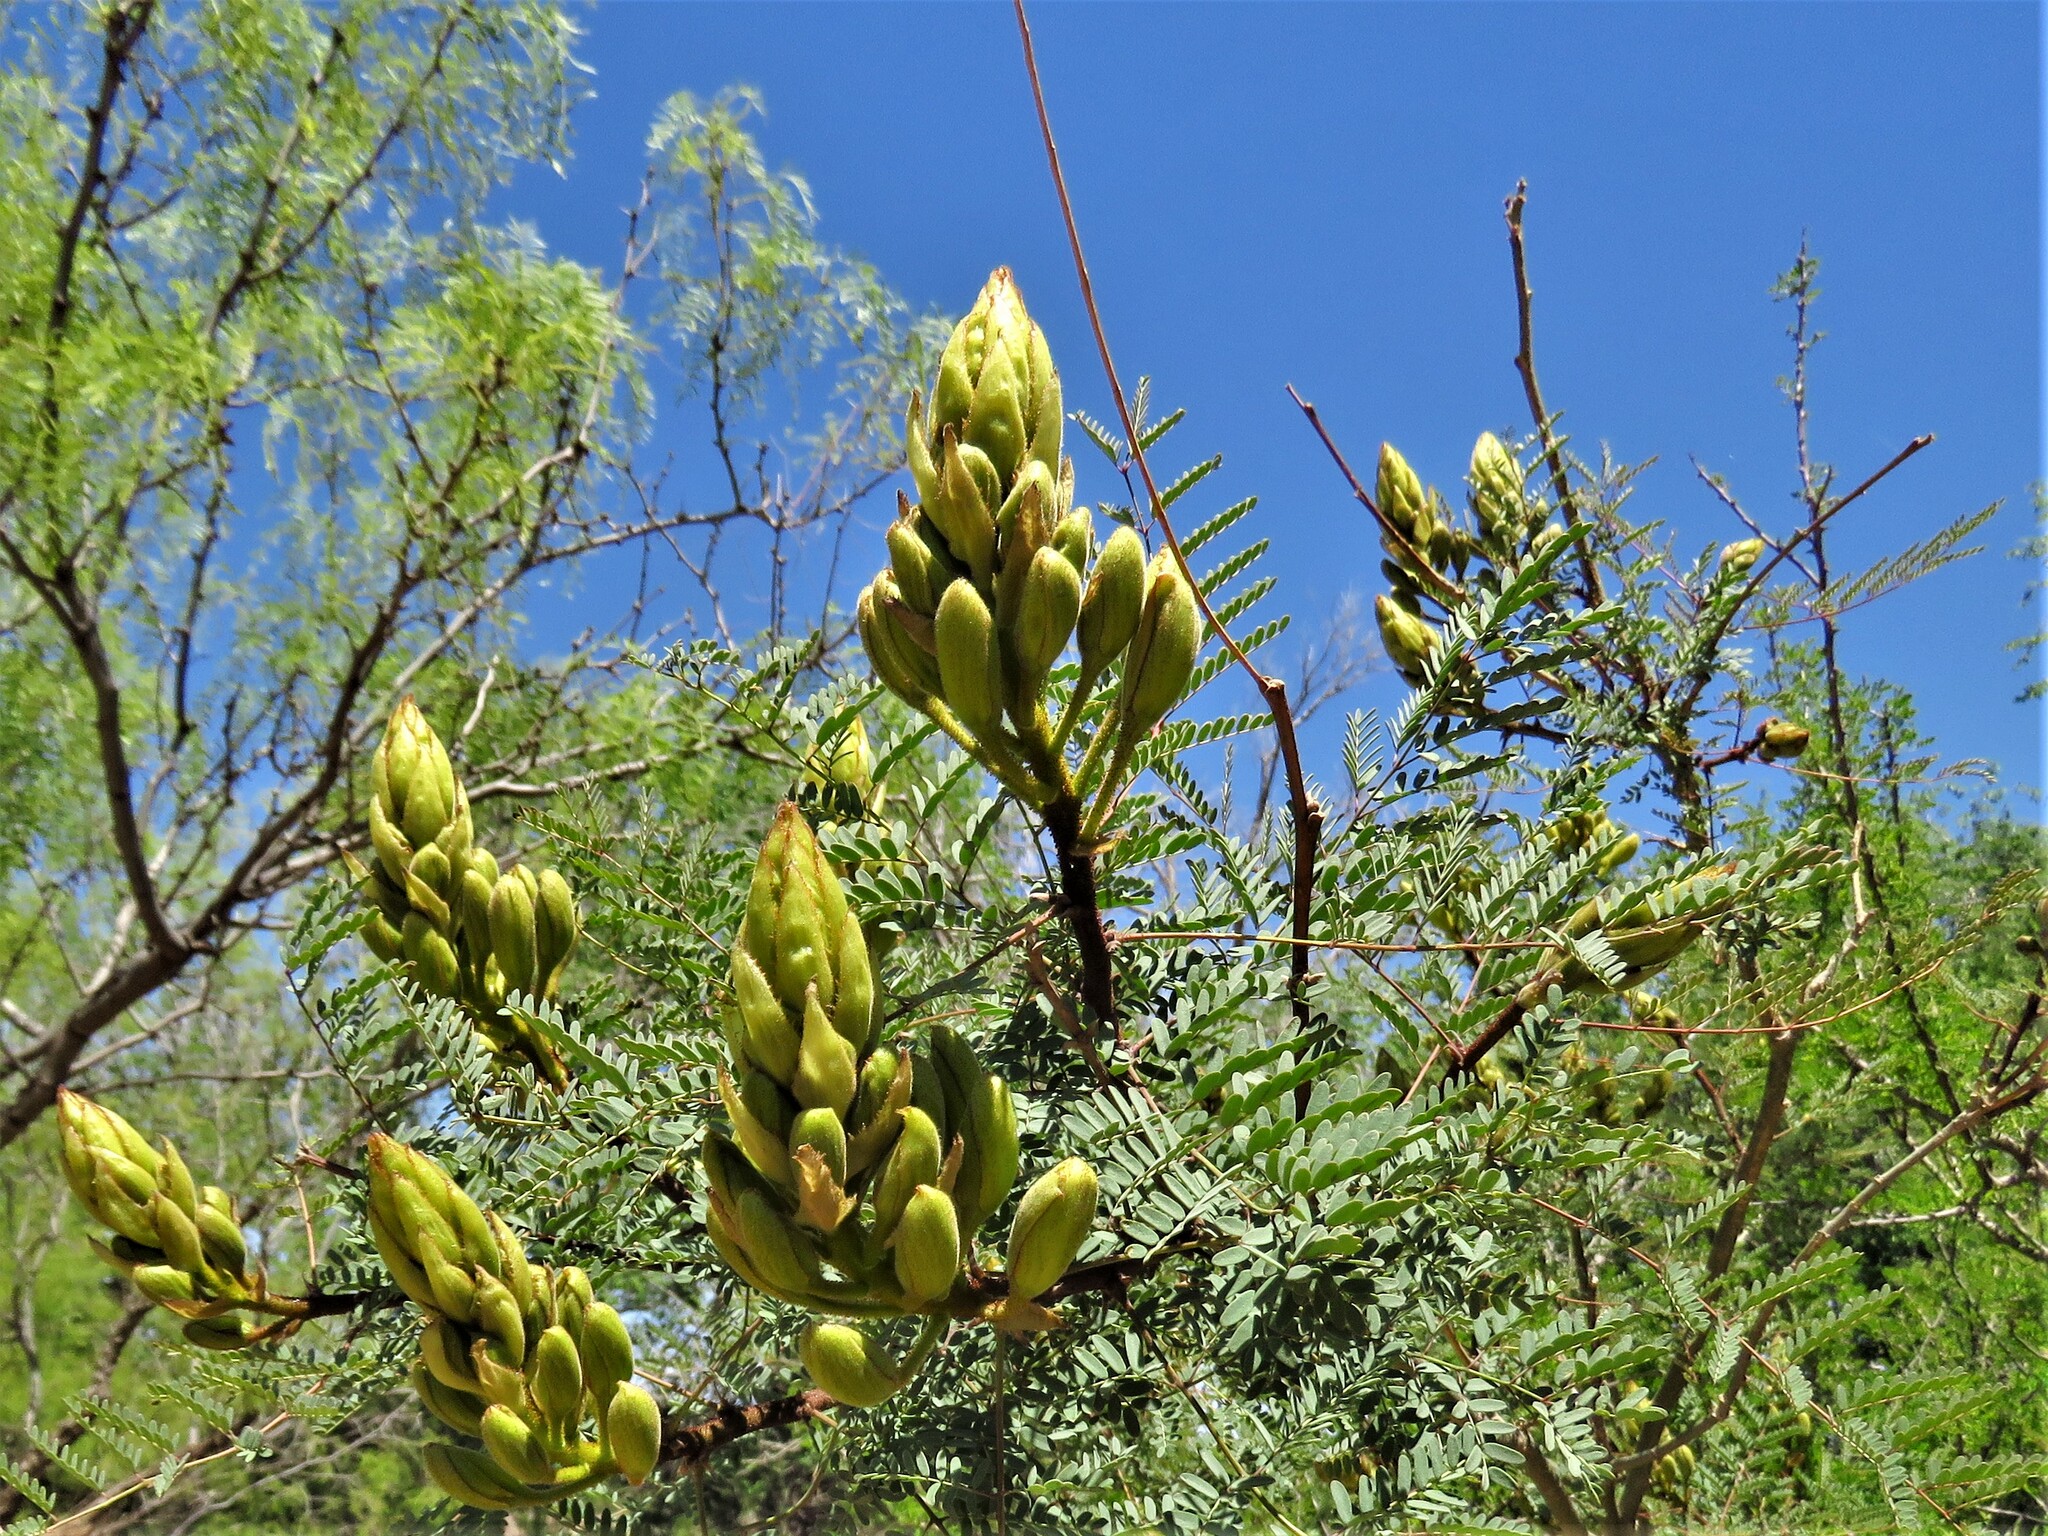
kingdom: Plantae
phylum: Tracheophyta
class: Magnoliopsida
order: Fabales
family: Fabaceae
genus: Erythrostemon
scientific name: Erythrostemon gilliesii
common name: Bird-of-paradise shrub
